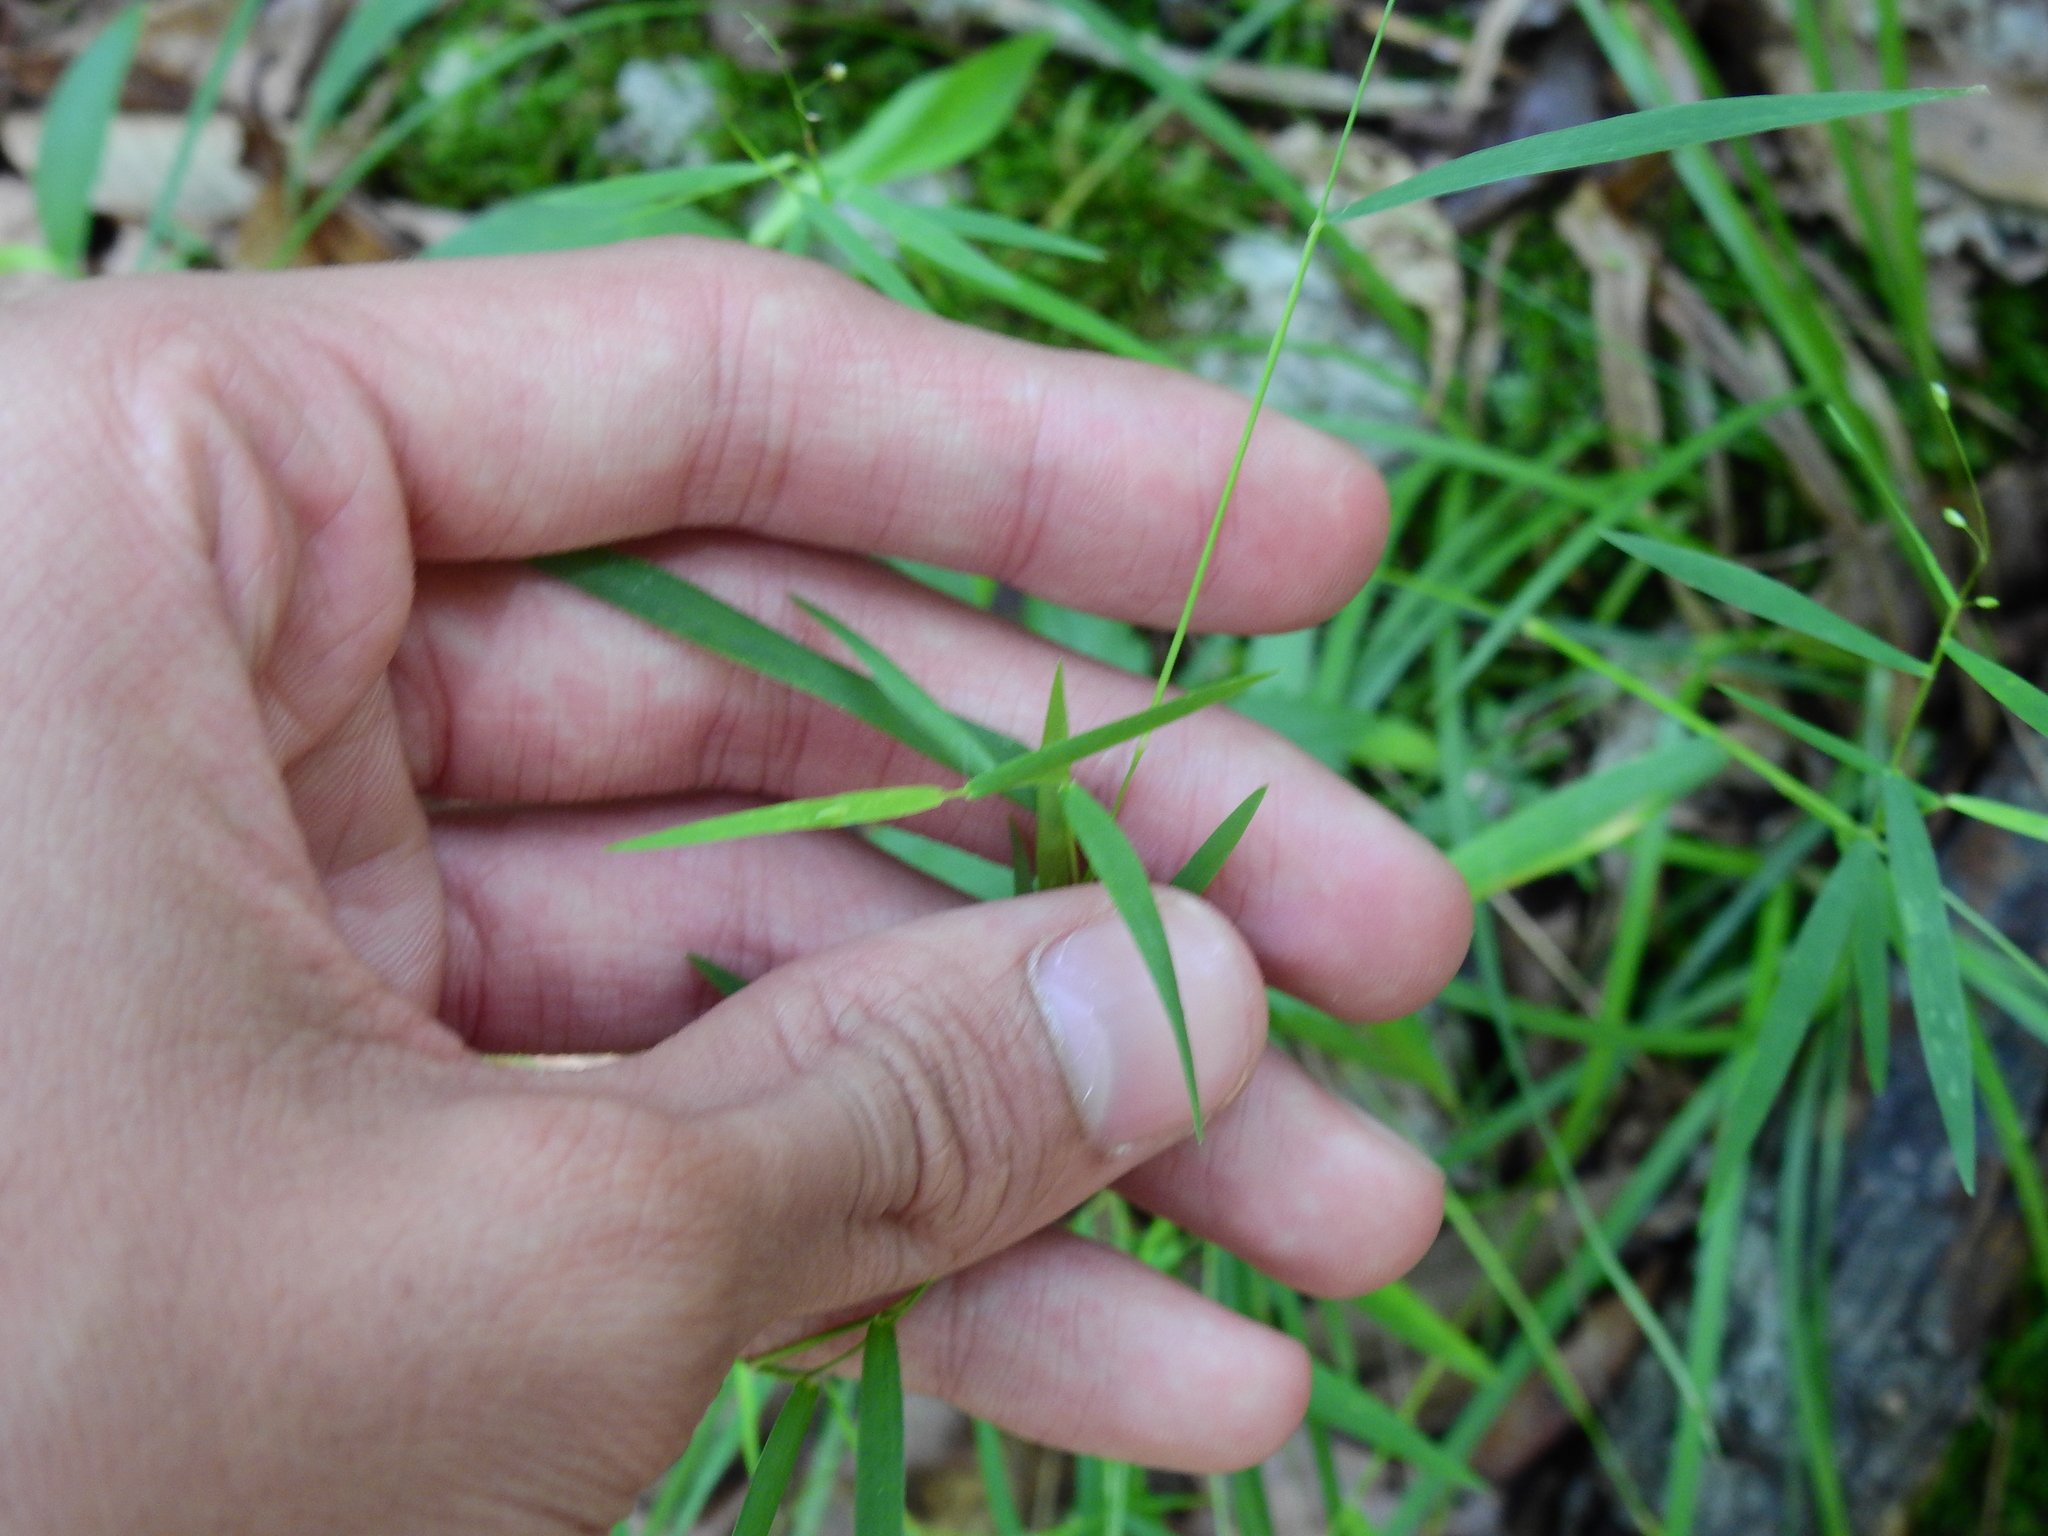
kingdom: Plantae
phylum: Tracheophyta
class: Liliopsida
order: Poales
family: Poaceae
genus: Dichanthelium
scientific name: Dichanthelium dichotomum
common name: Cypress panicgrass
